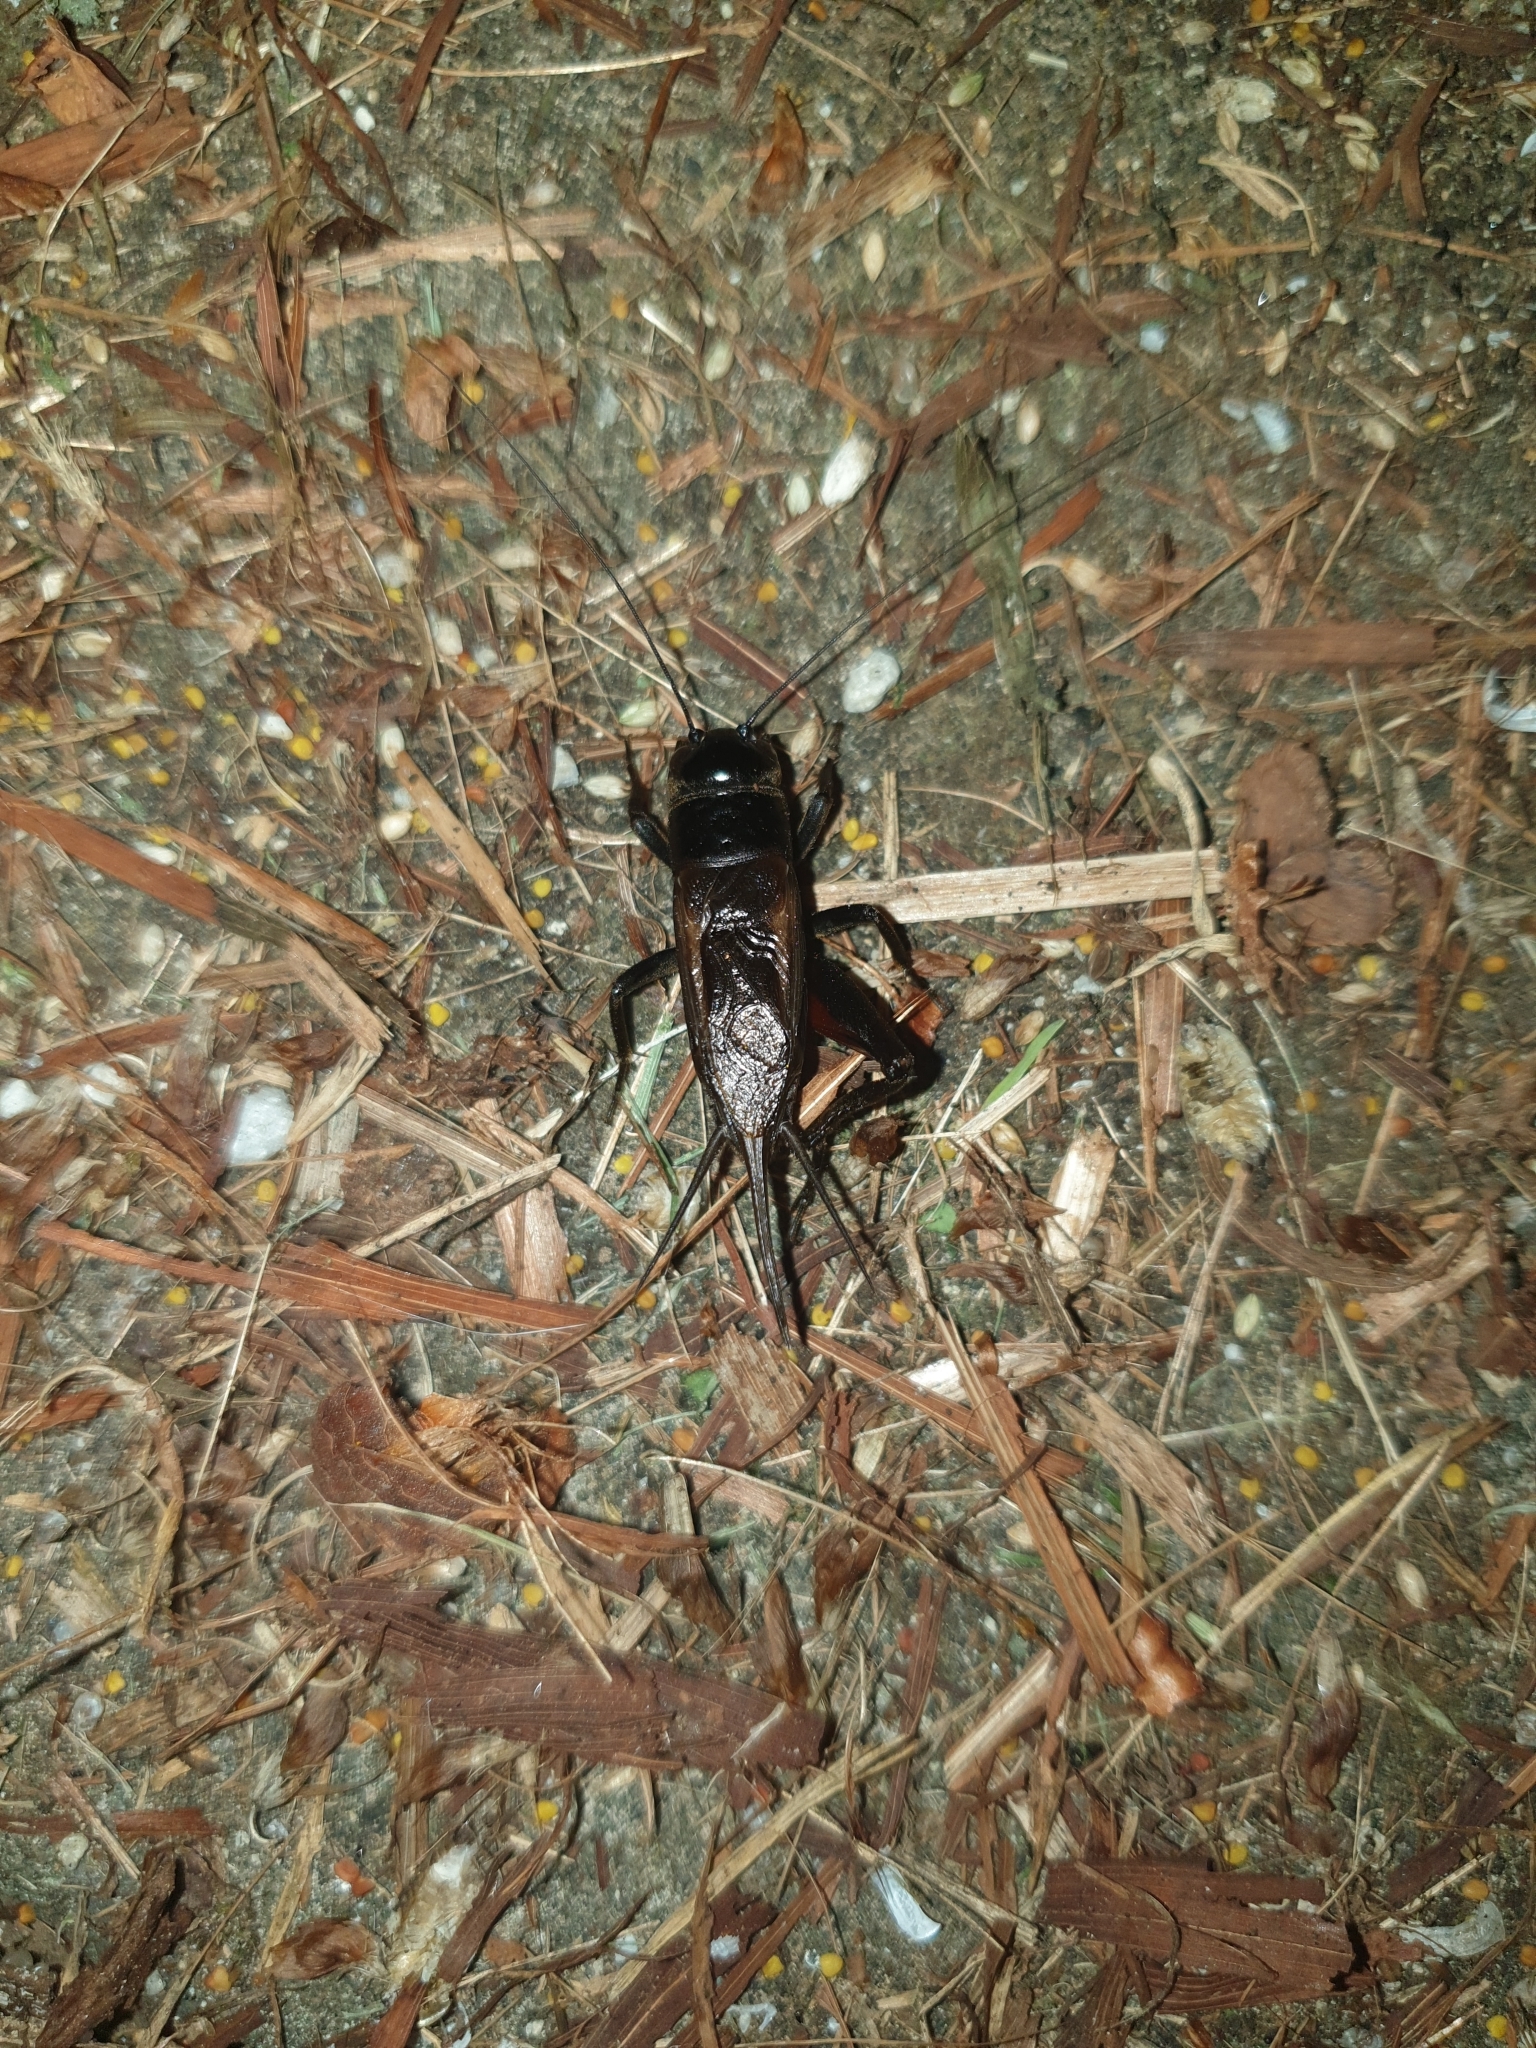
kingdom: Animalia
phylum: Arthropoda
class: Insecta
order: Orthoptera
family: Gryllidae
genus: Teleogryllus
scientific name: Teleogryllus commodus
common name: Black field cricket
